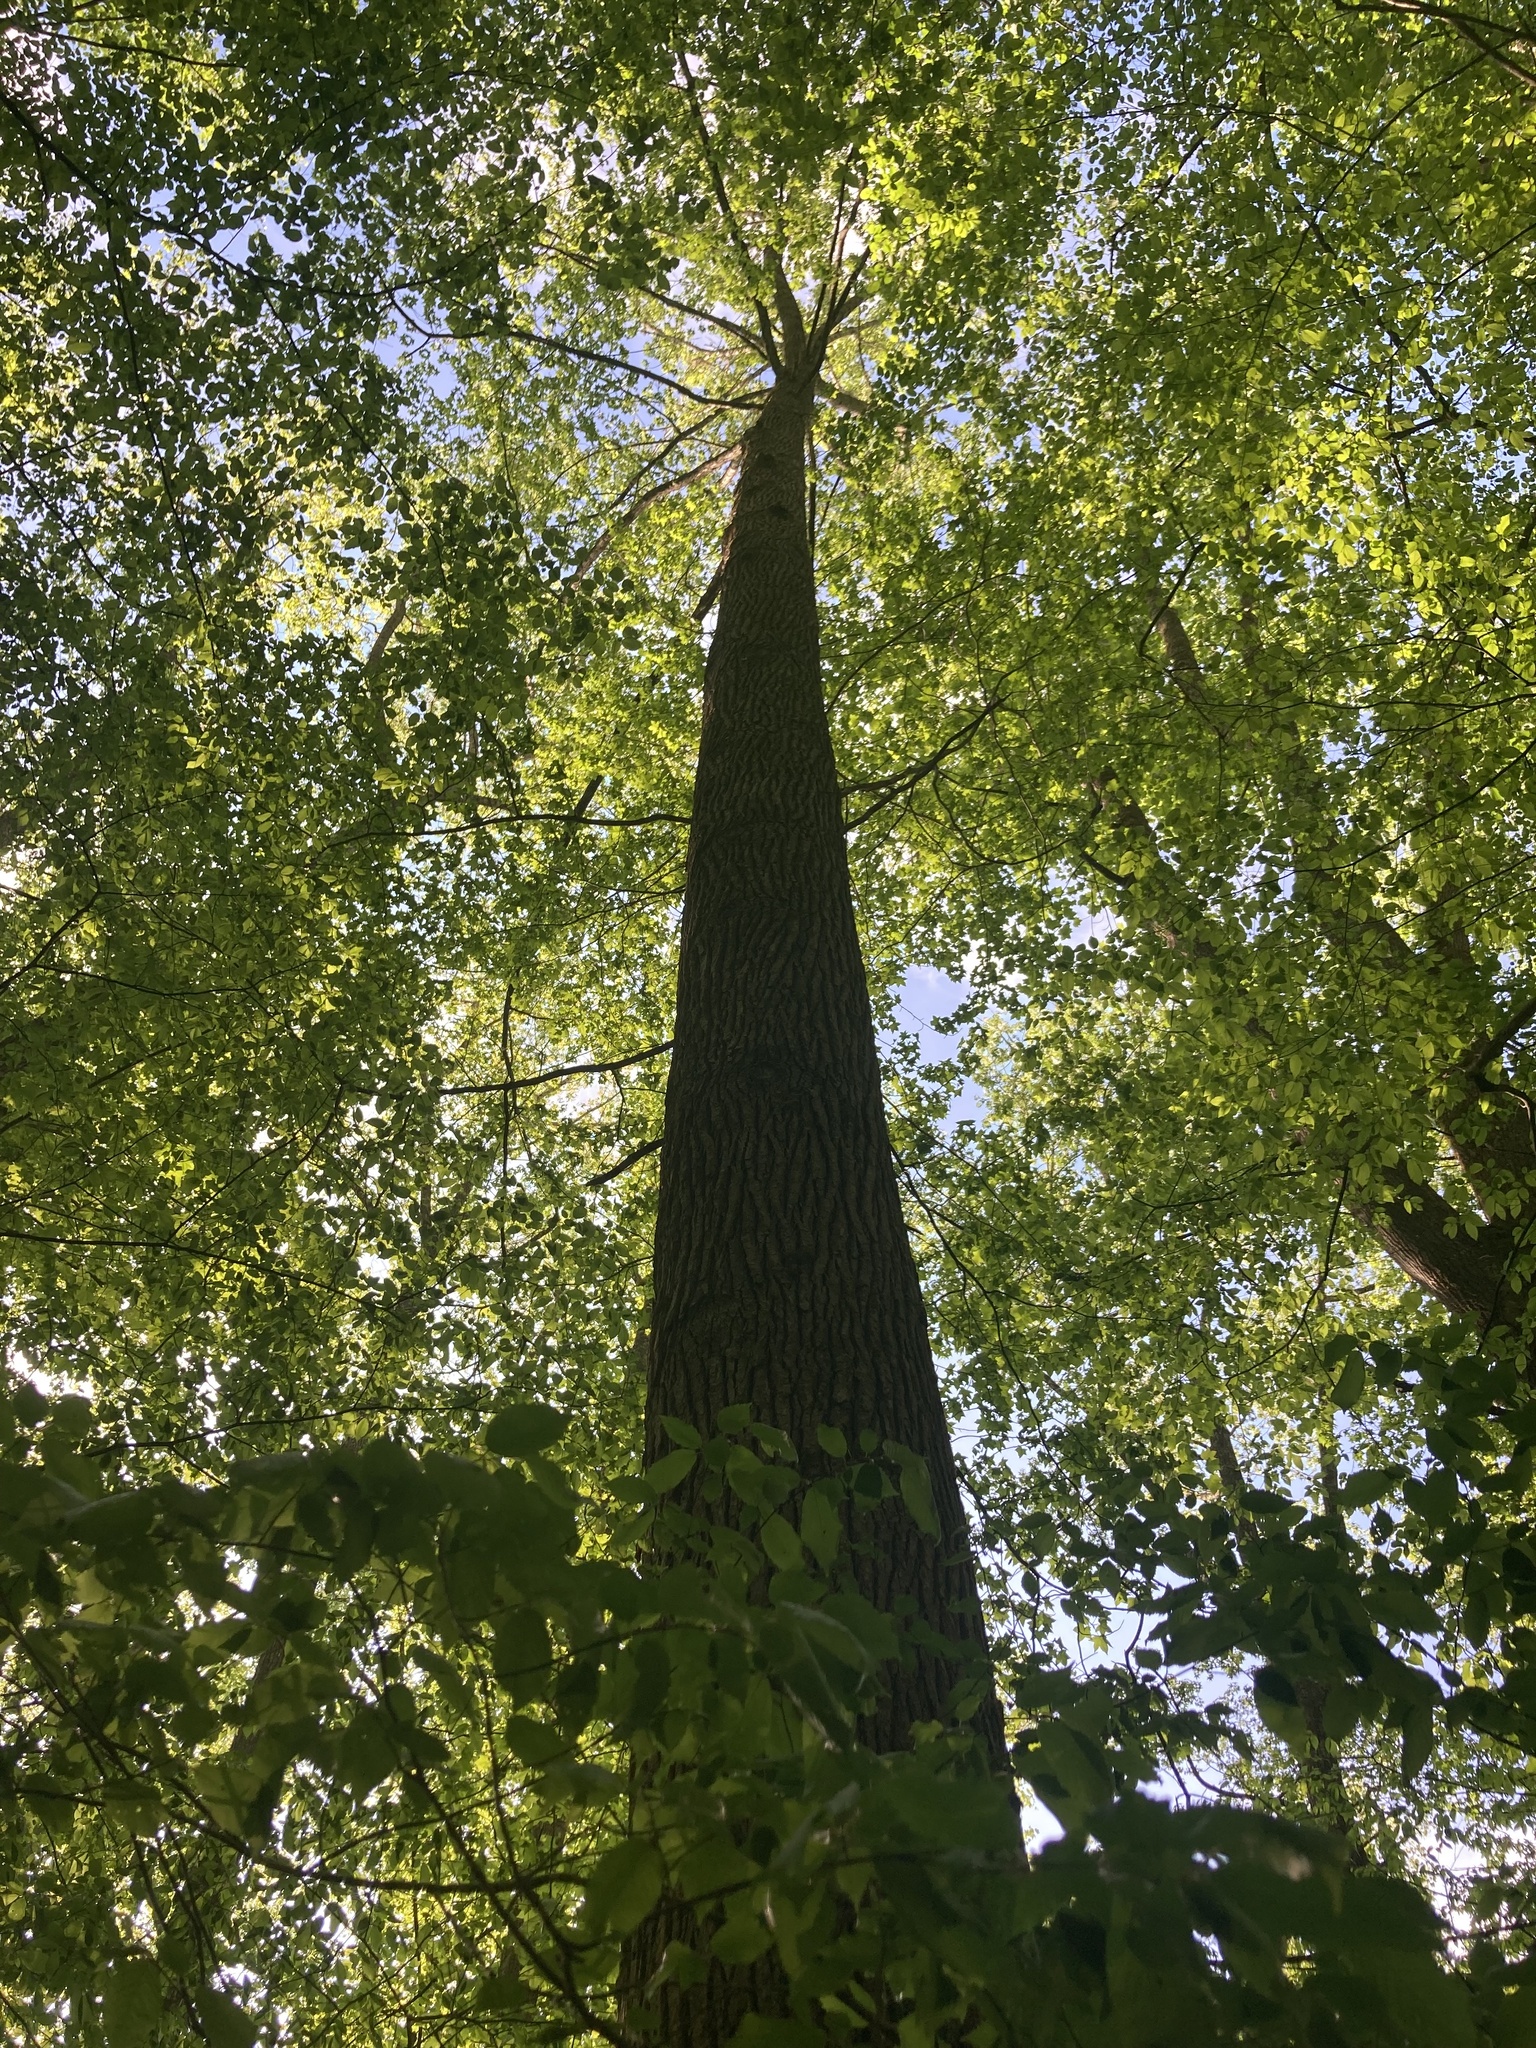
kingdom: Plantae
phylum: Tracheophyta
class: Magnoliopsida
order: Saxifragales
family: Altingiaceae
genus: Liquidambar
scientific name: Liquidambar styraciflua
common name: Sweet gum
